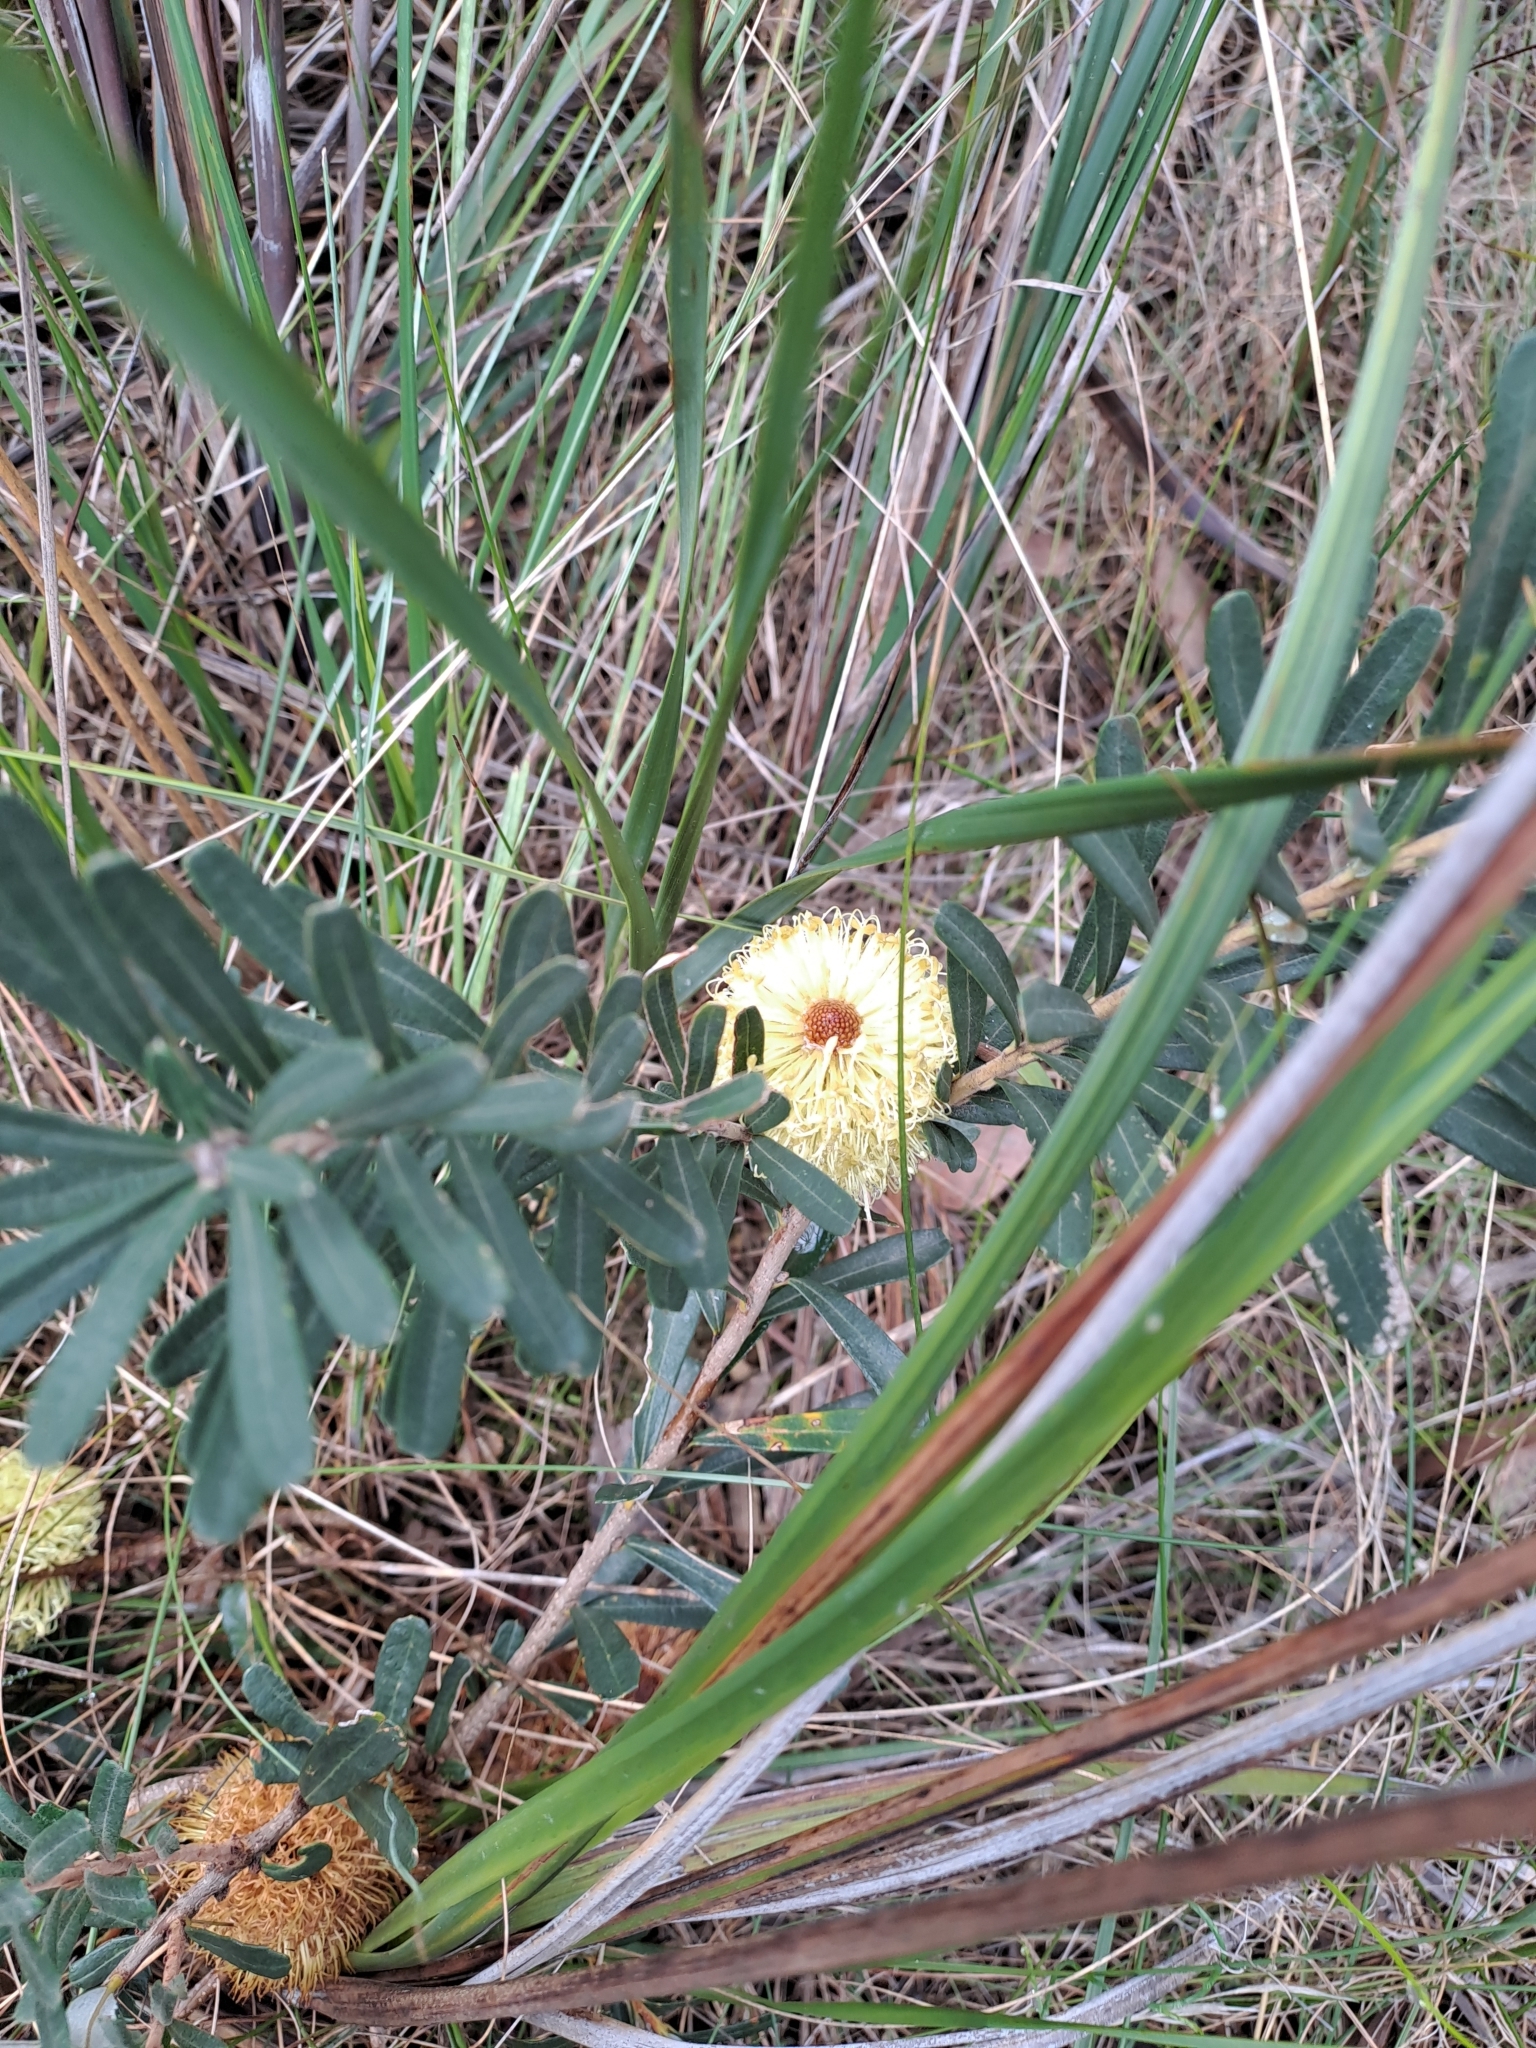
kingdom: Plantae
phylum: Tracheophyta
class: Magnoliopsida
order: Proteales
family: Proteaceae
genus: Banksia
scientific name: Banksia marginata
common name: Silver banksia
